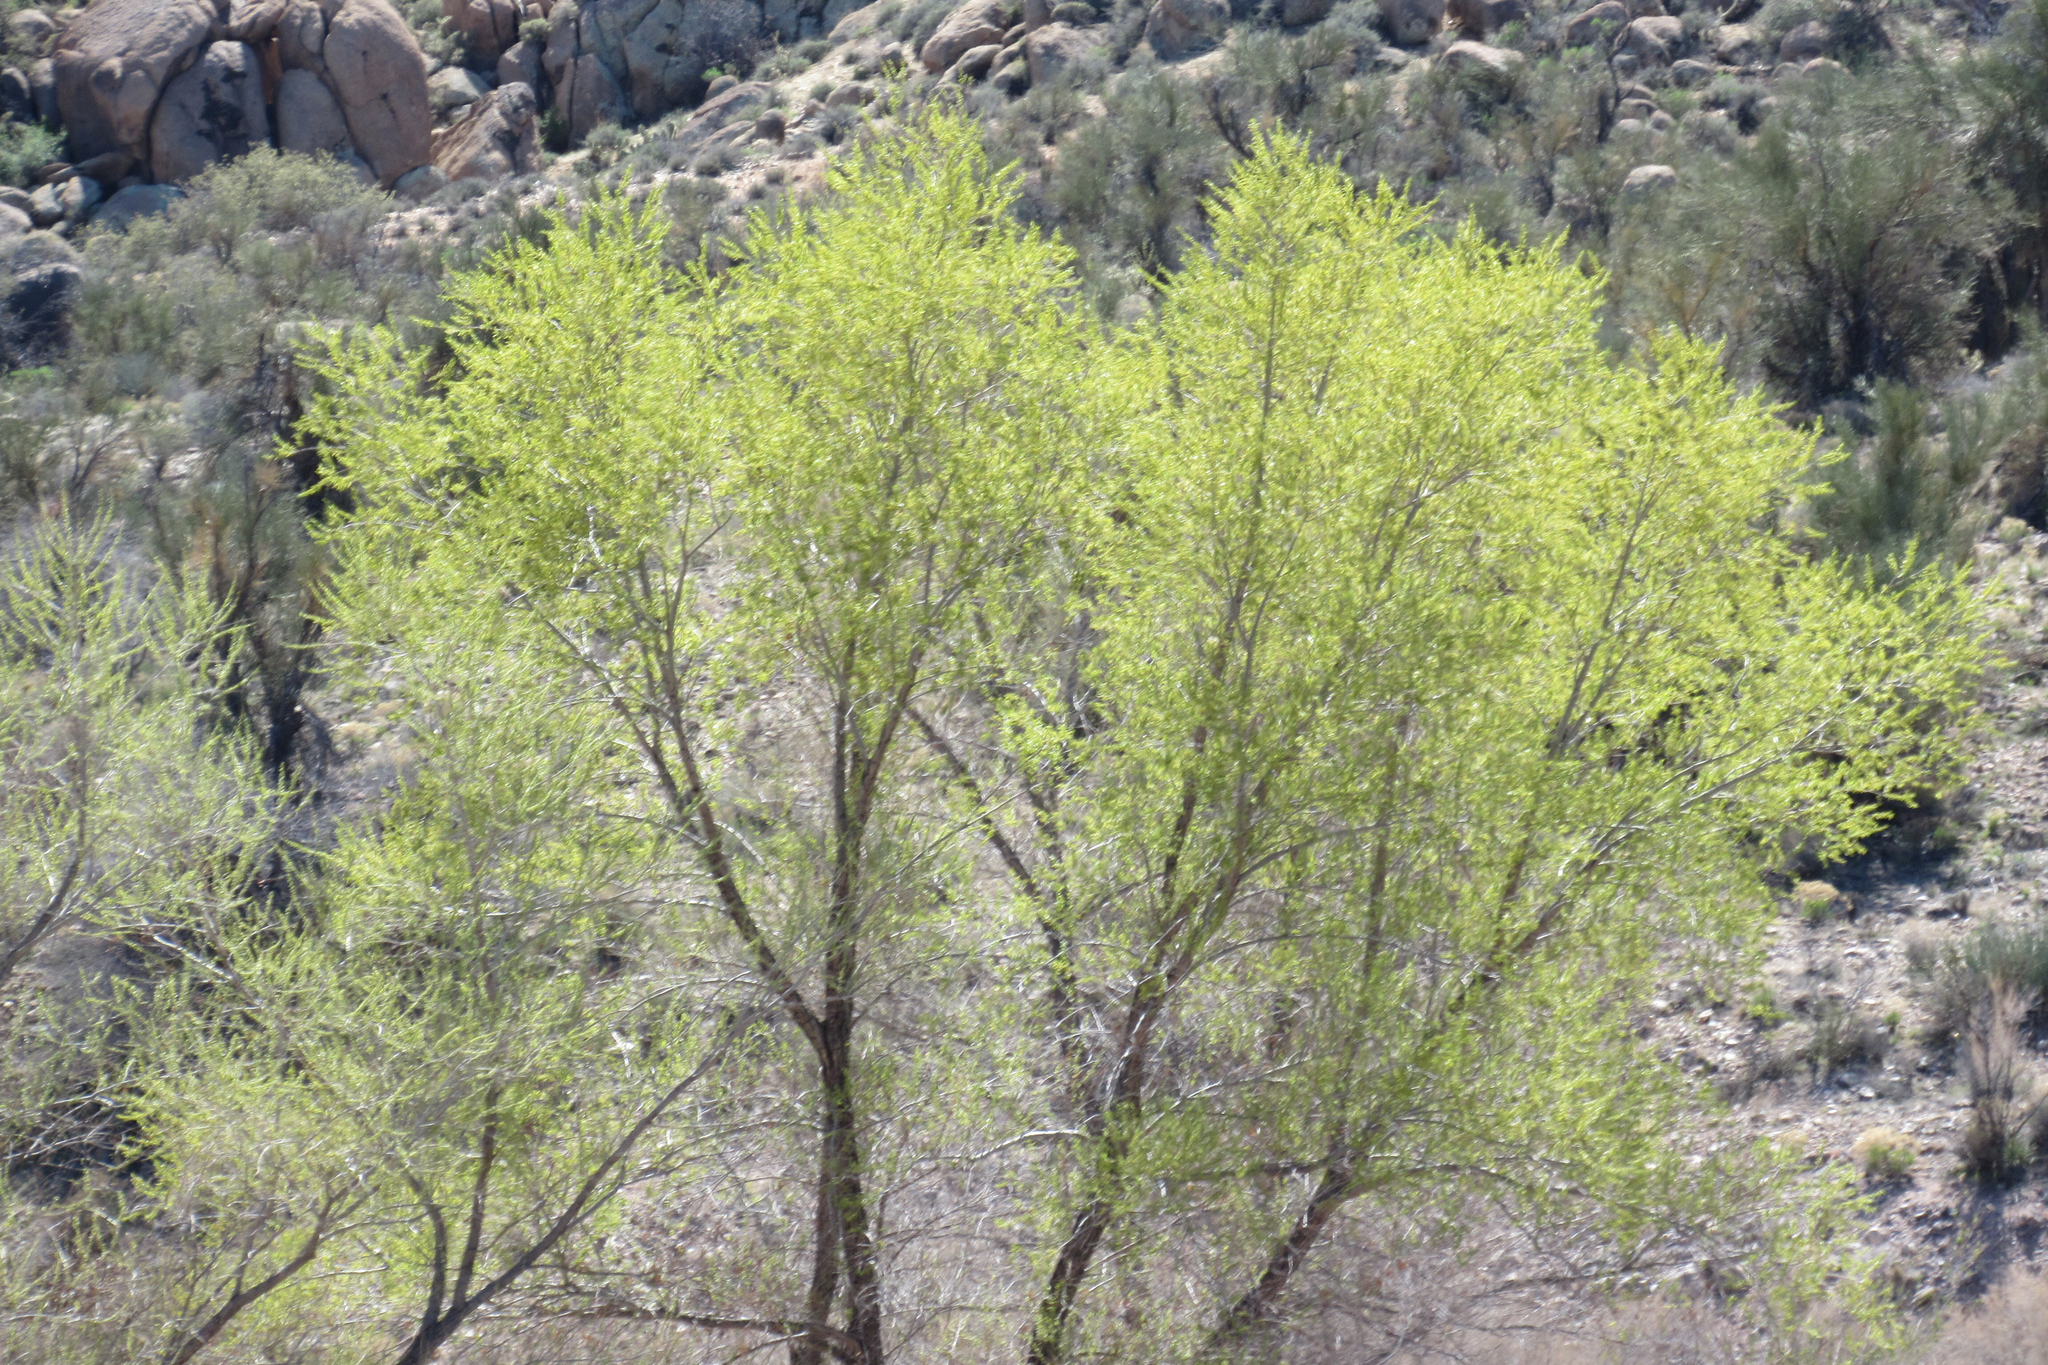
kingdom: Plantae
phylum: Tracheophyta
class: Magnoliopsida
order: Malpighiales
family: Salicaceae
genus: Salix
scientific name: Salix gooddingii
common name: Goodding's willow
